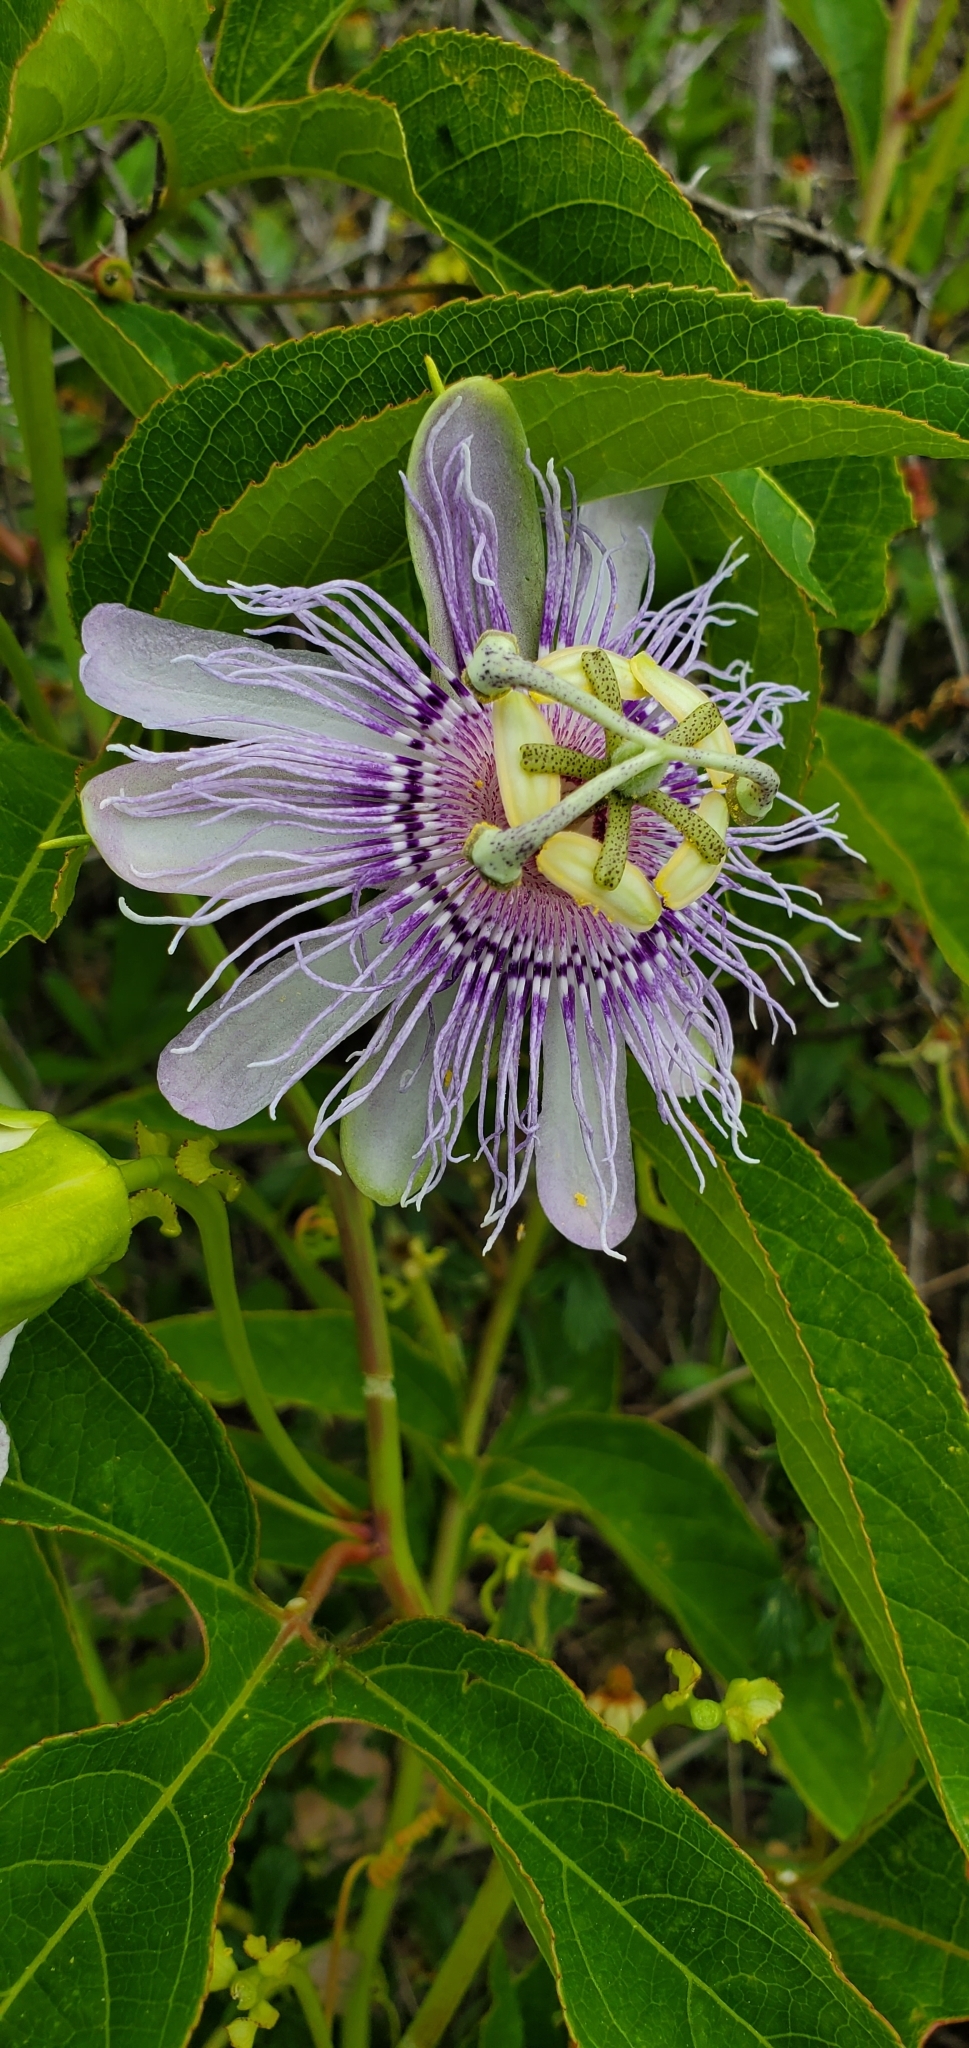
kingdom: Plantae
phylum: Tracheophyta
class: Magnoliopsida
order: Malpighiales
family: Passifloraceae
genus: Passiflora
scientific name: Passiflora incarnata
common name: Apricot-vine
